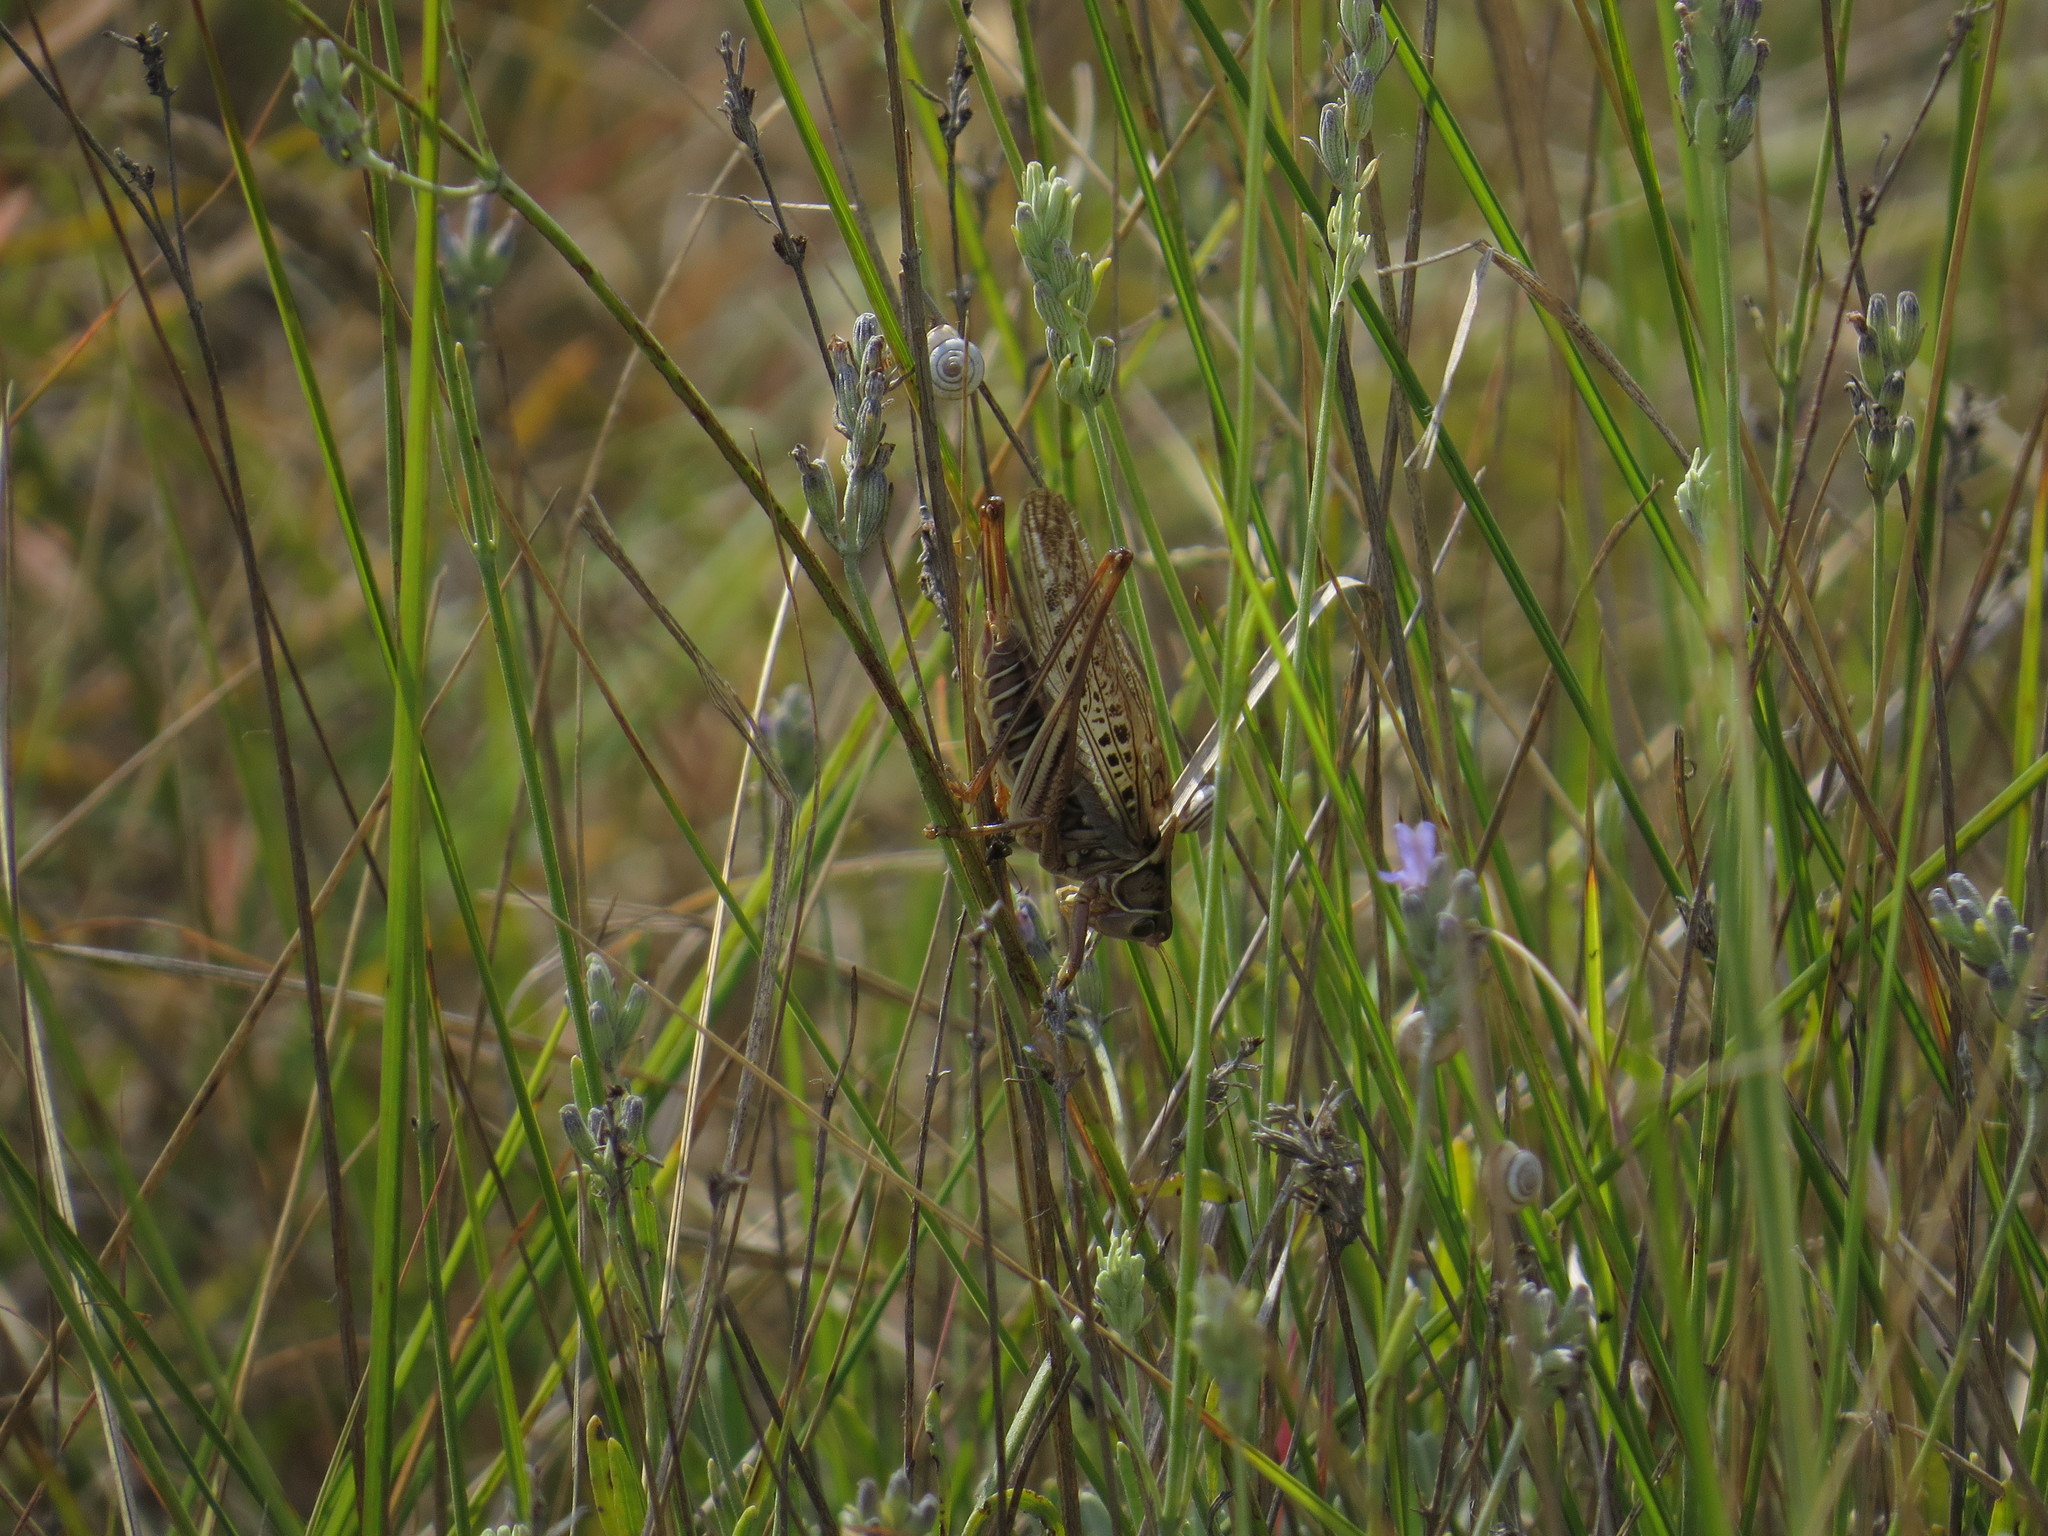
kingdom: Animalia
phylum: Arthropoda
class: Insecta
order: Orthoptera
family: Tettigoniidae
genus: Gampsocleis
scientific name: Gampsocleis glabra
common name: Heath bushcricket
